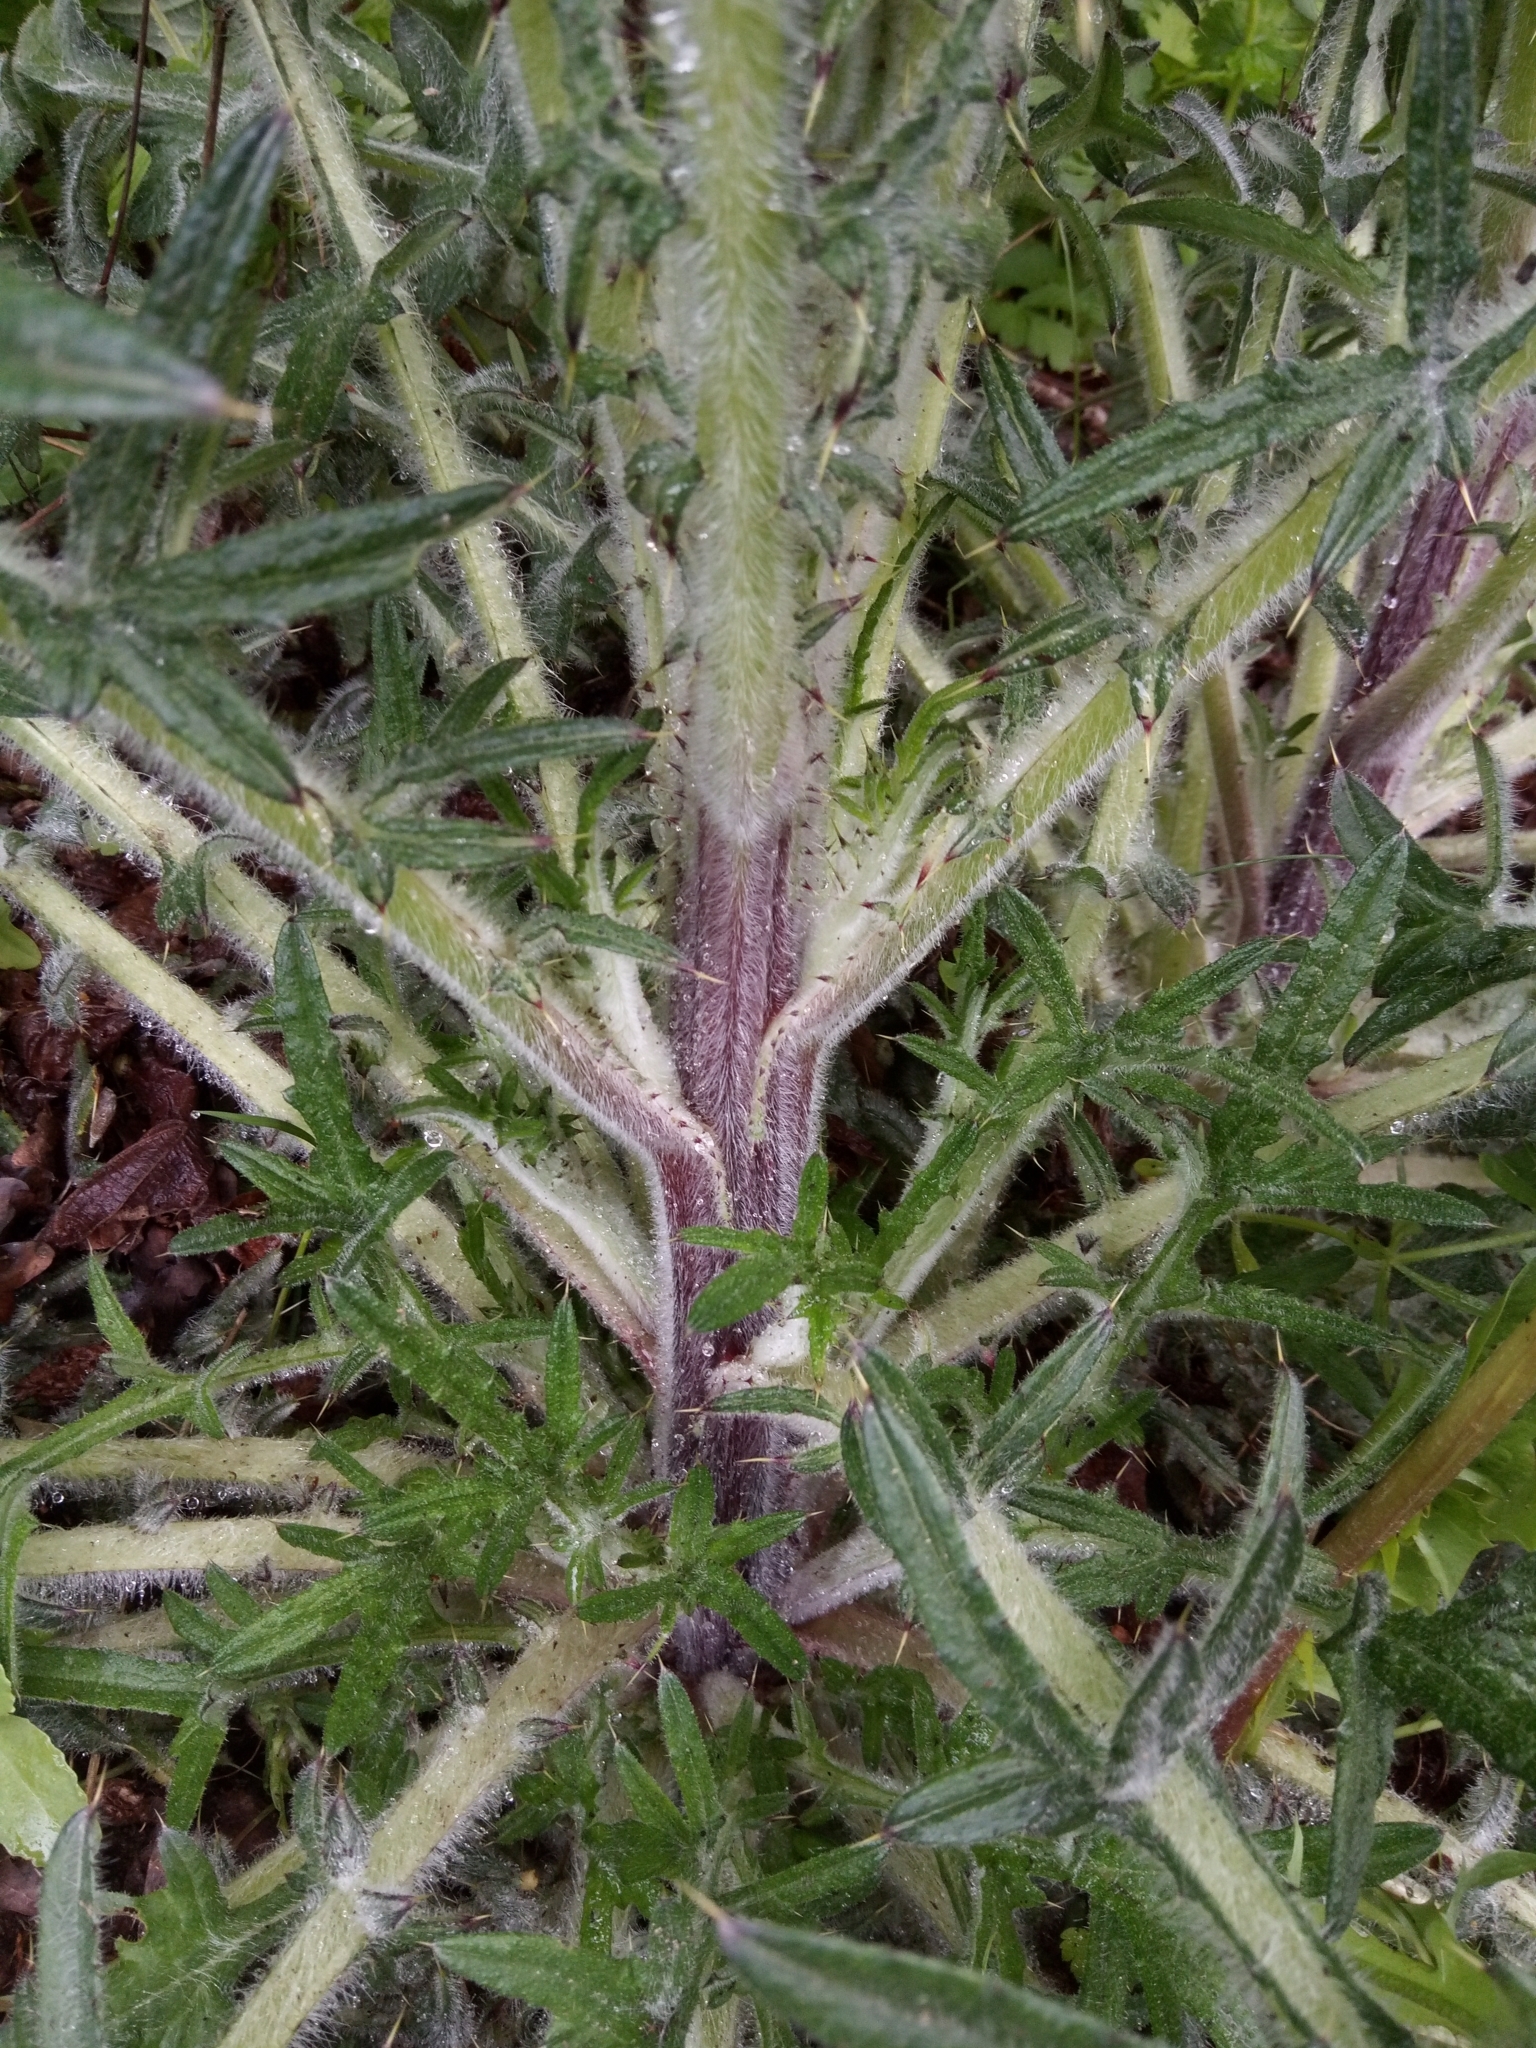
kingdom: Plantae
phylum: Tracheophyta
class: Magnoliopsida
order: Asterales
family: Asteraceae
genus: Cirsium
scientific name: Cirsium vulgare
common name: Bull thistle
